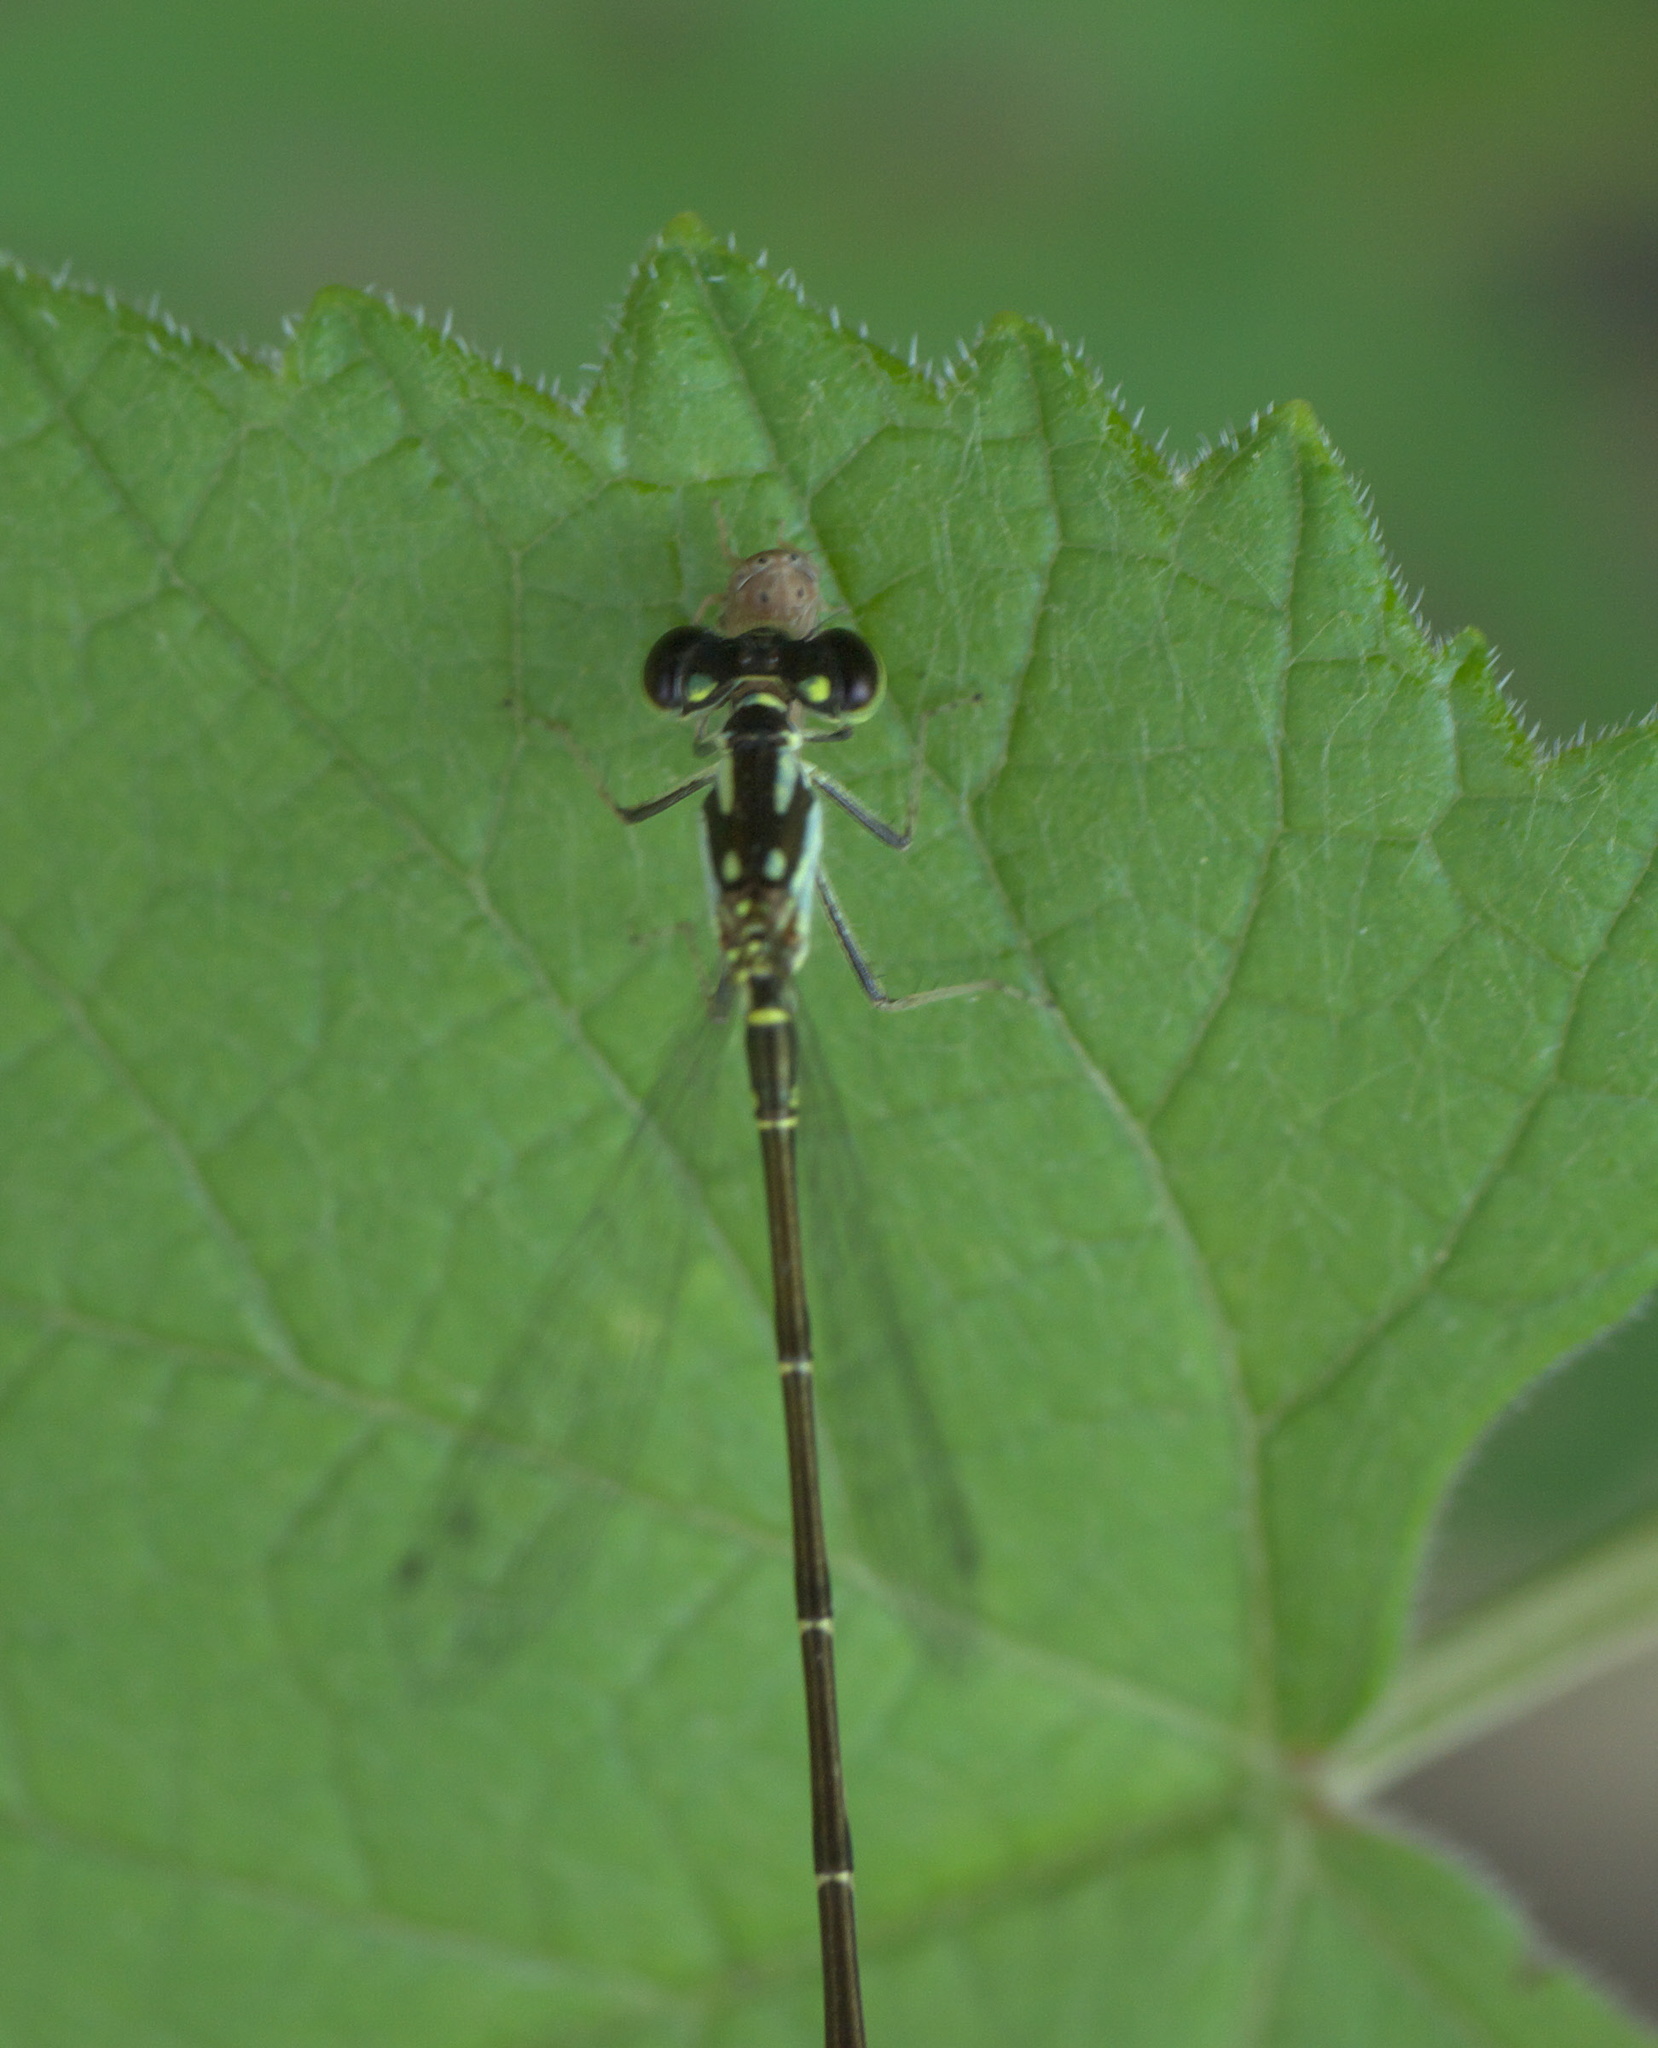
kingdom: Animalia
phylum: Arthropoda
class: Insecta
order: Odonata
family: Coenagrionidae
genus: Ischnura
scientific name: Ischnura posita
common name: Fragile forktail
